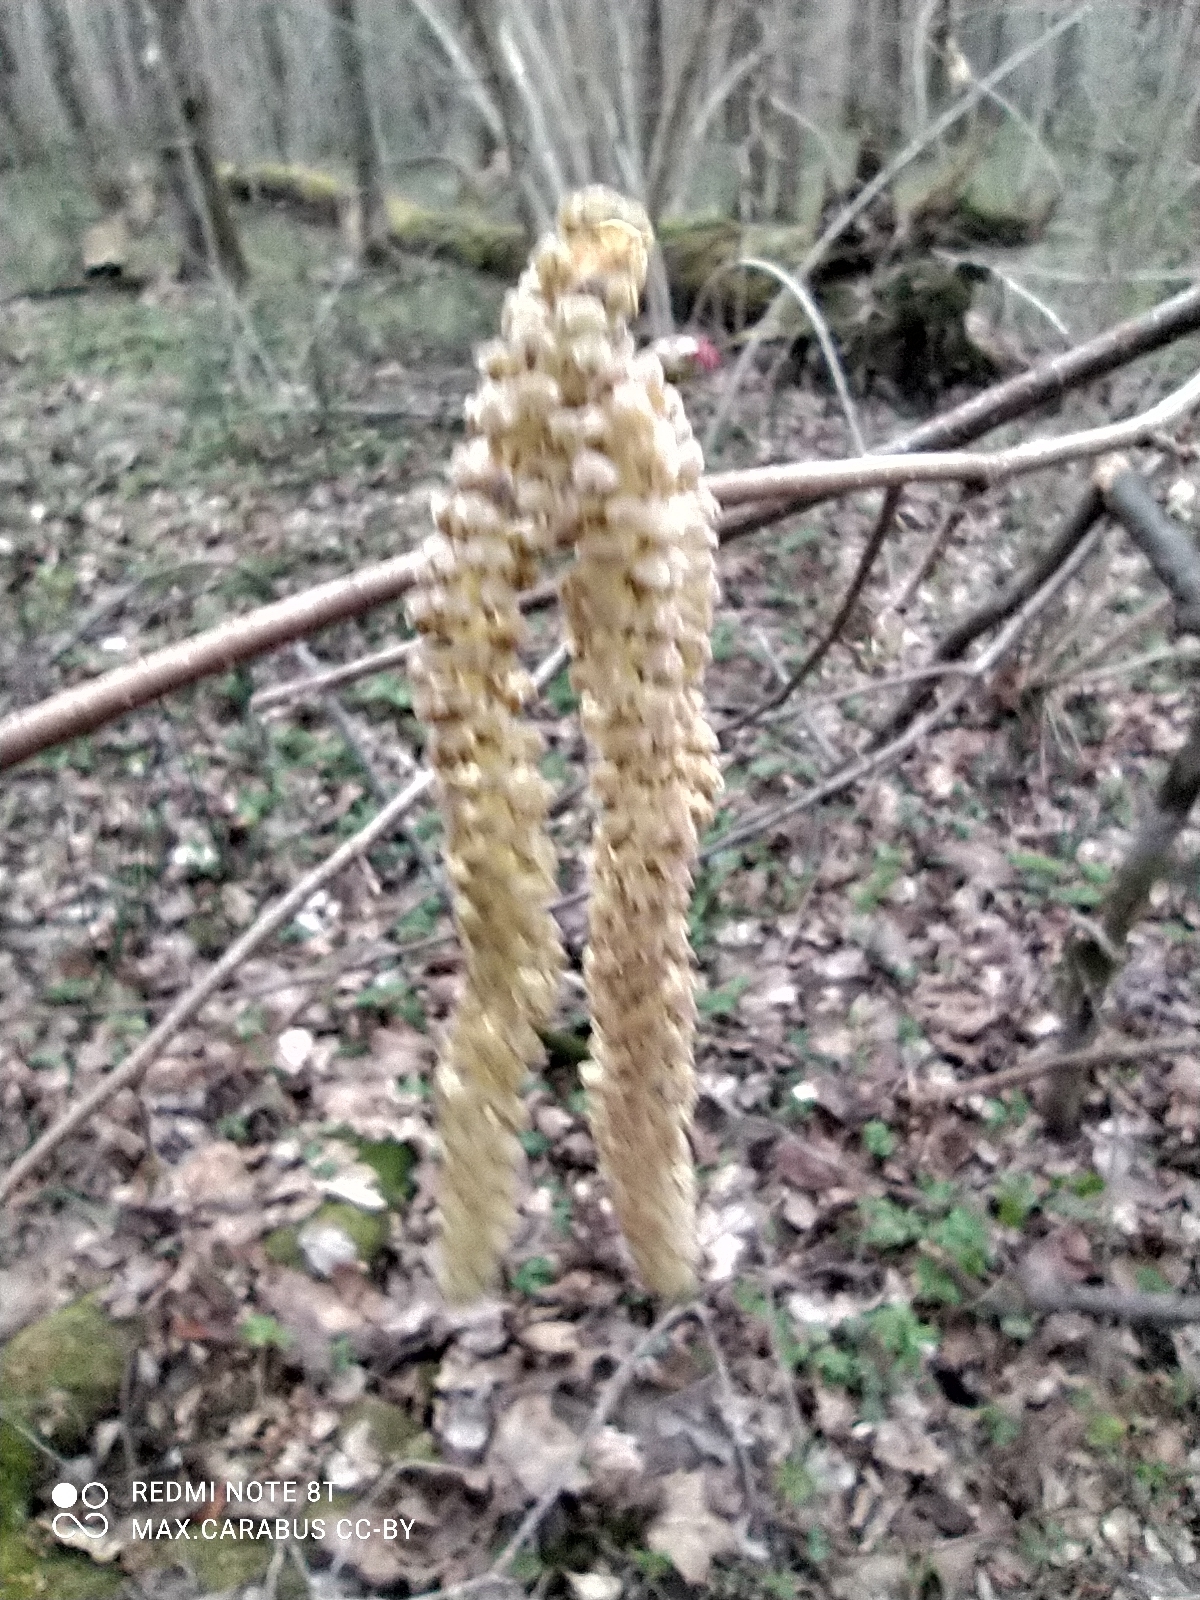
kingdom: Plantae
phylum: Tracheophyta
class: Magnoliopsida
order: Fagales
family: Betulaceae
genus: Corylus
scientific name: Corylus avellana
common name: European hazel
